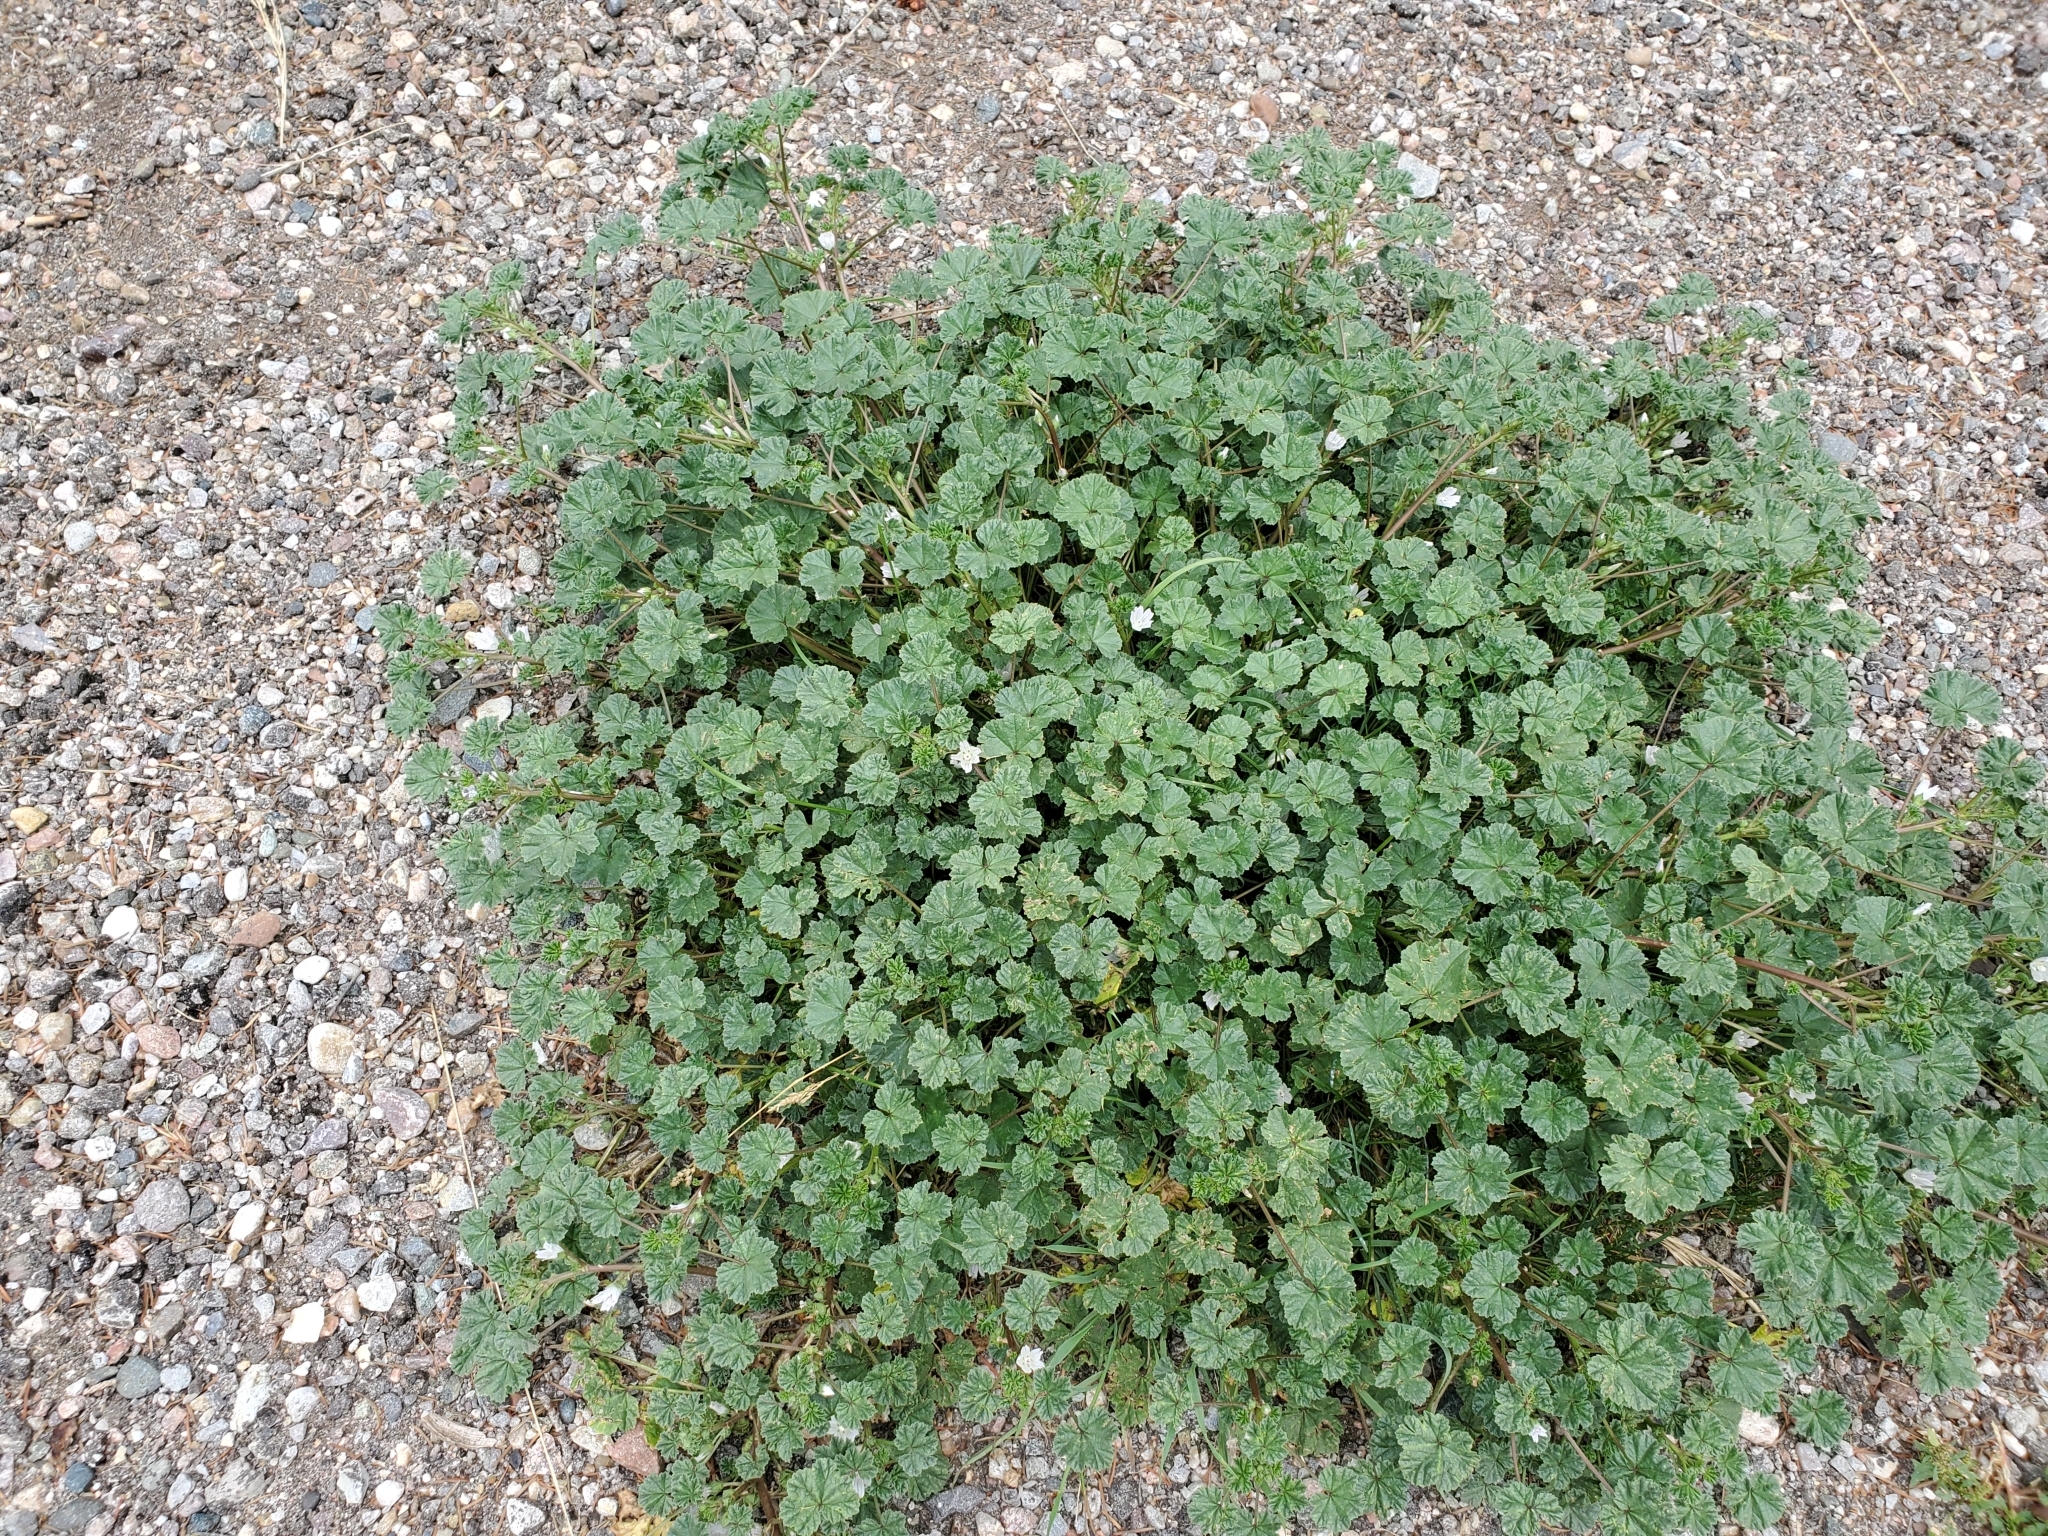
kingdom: Plantae
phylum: Tracheophyta
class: Magnoliopsida
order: Malvales
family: Malvaceae
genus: Malva
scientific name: Malva neglecta
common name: Common mallow
